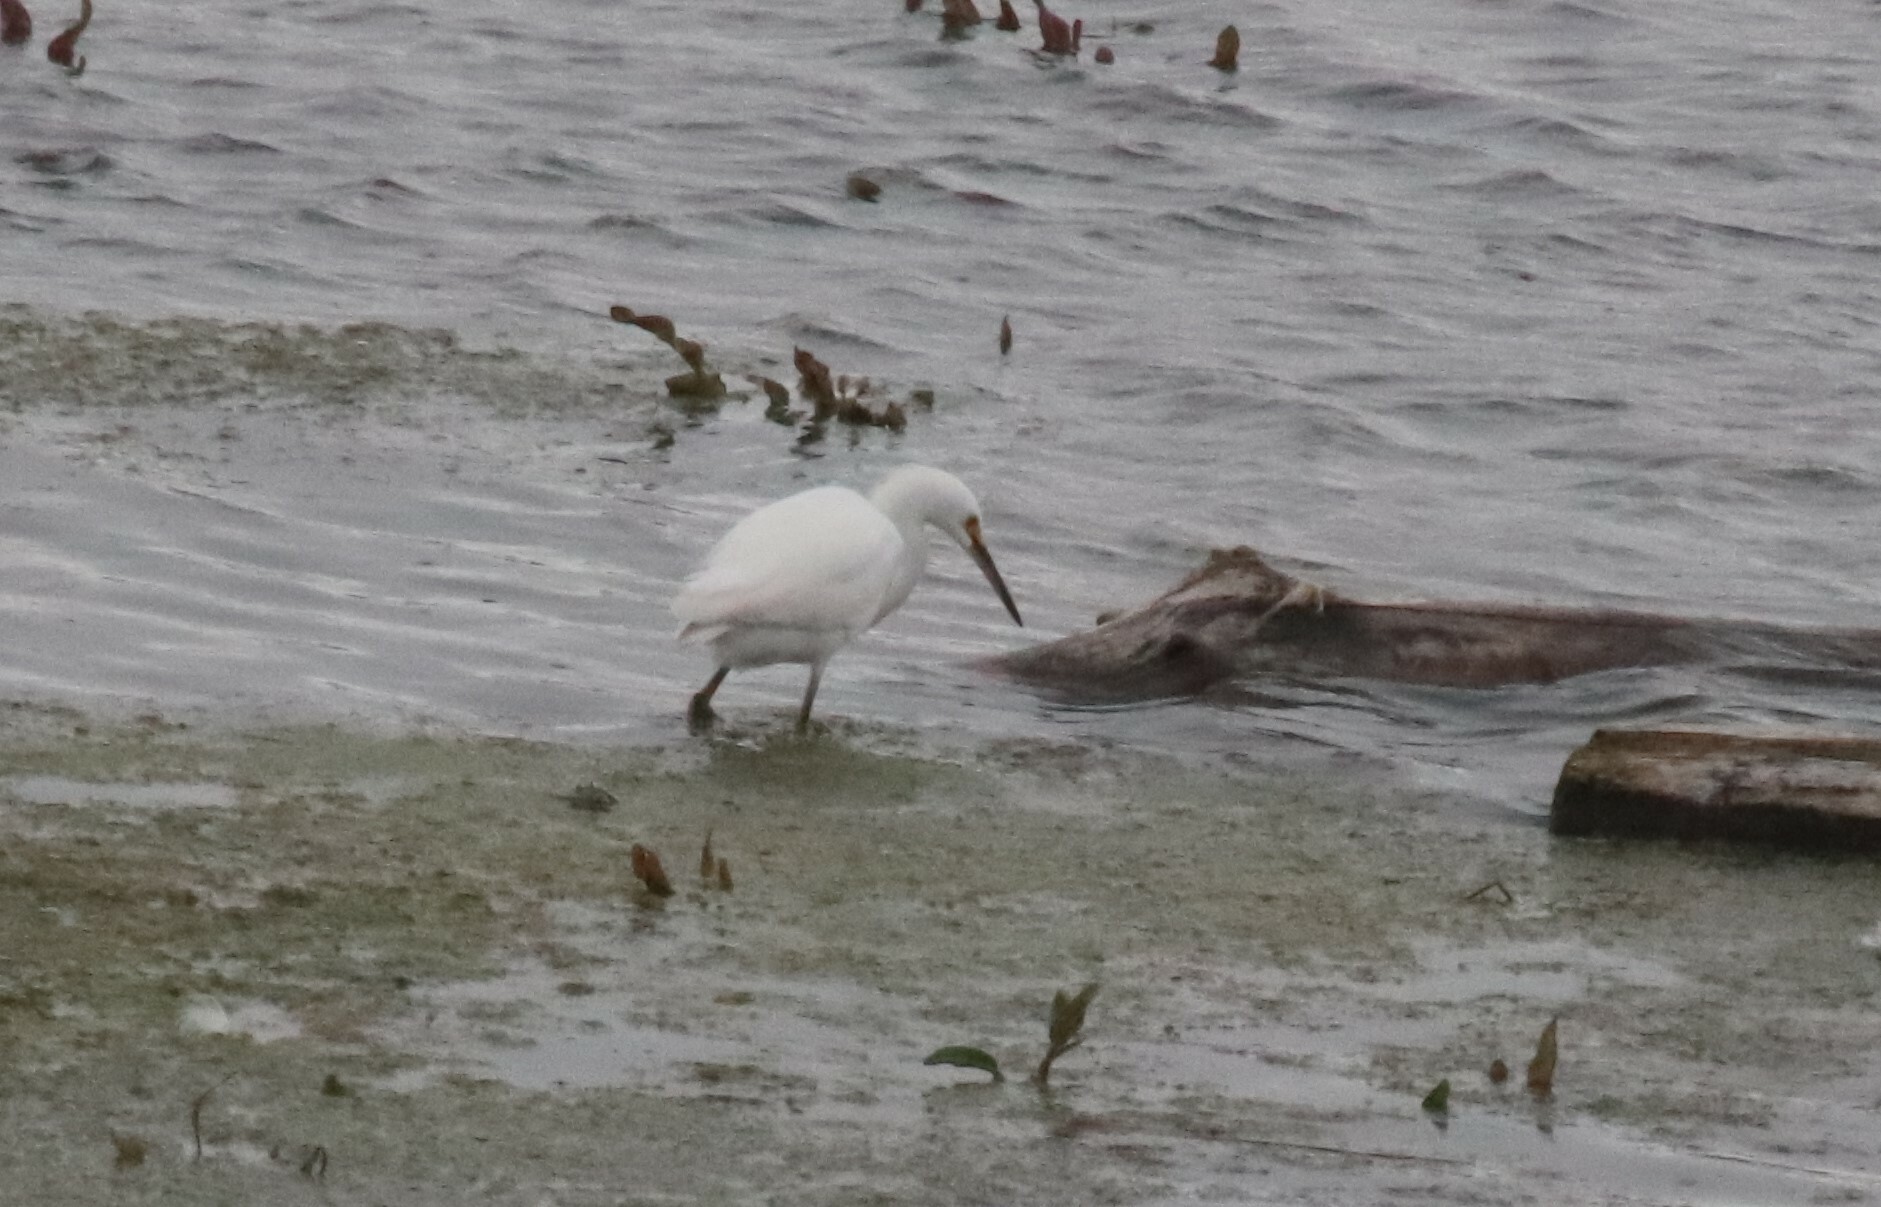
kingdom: Animalia
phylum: Chordata
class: Aves
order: Pelecaniformes
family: Ardeidae
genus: Egretta
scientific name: Egretta thula
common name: Snowy egret
